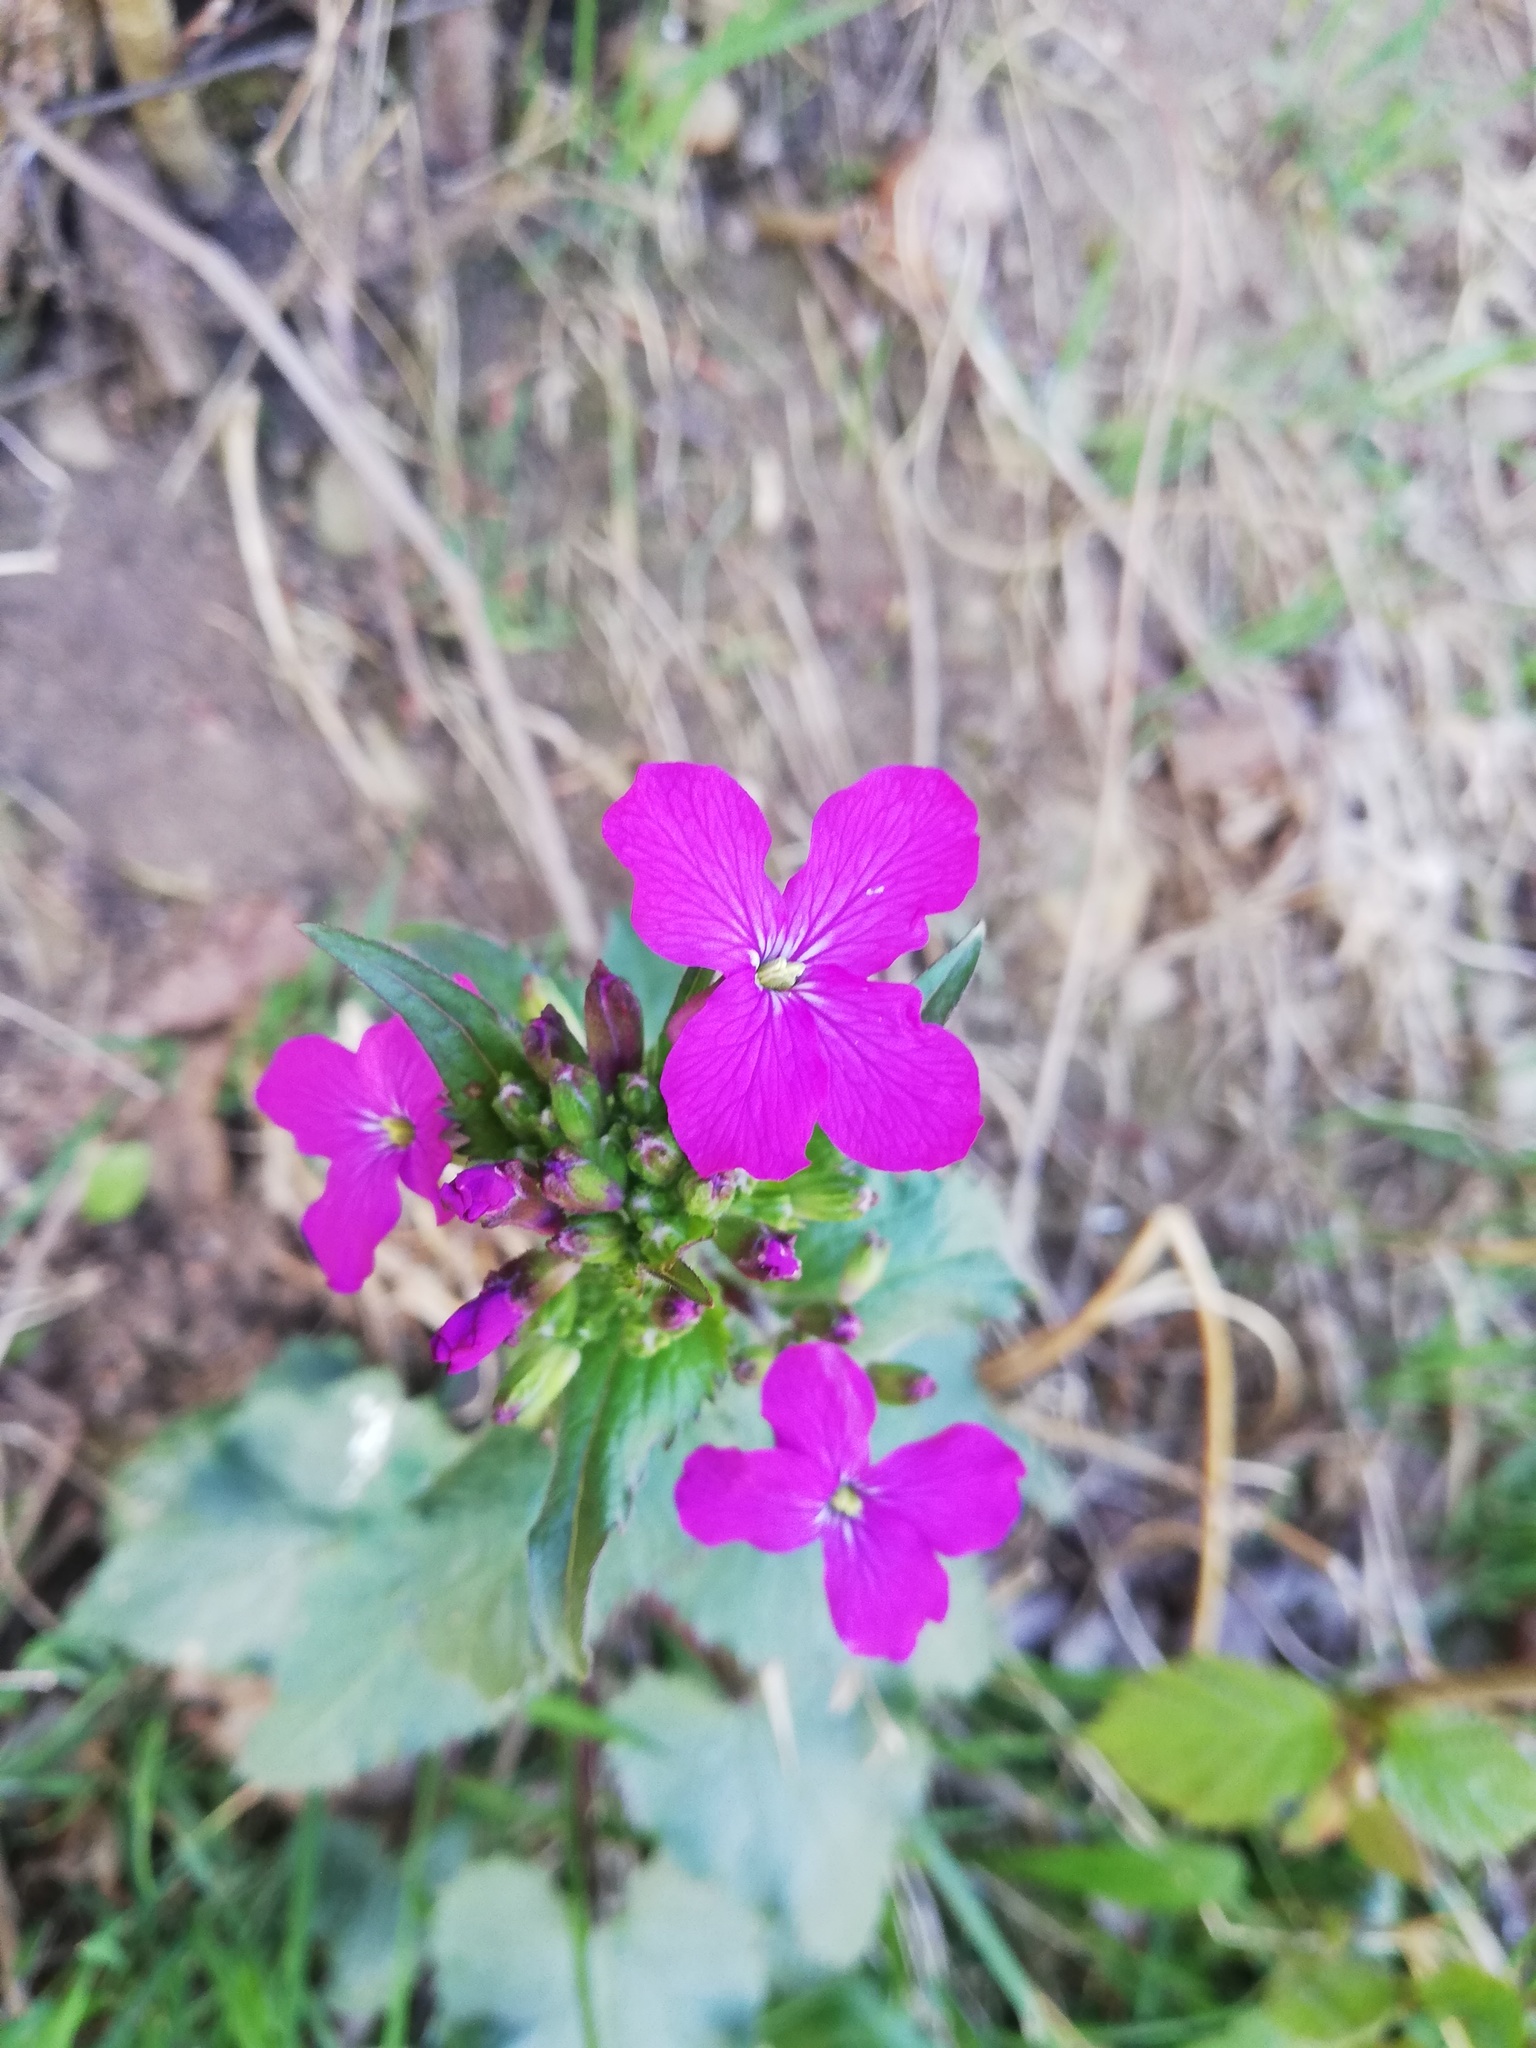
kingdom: Plantae
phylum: Tracheophyta
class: Magnoliopsida
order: Brassicales
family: Brassicaceae
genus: Lunaria
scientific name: Lunaria annua
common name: Honesty
